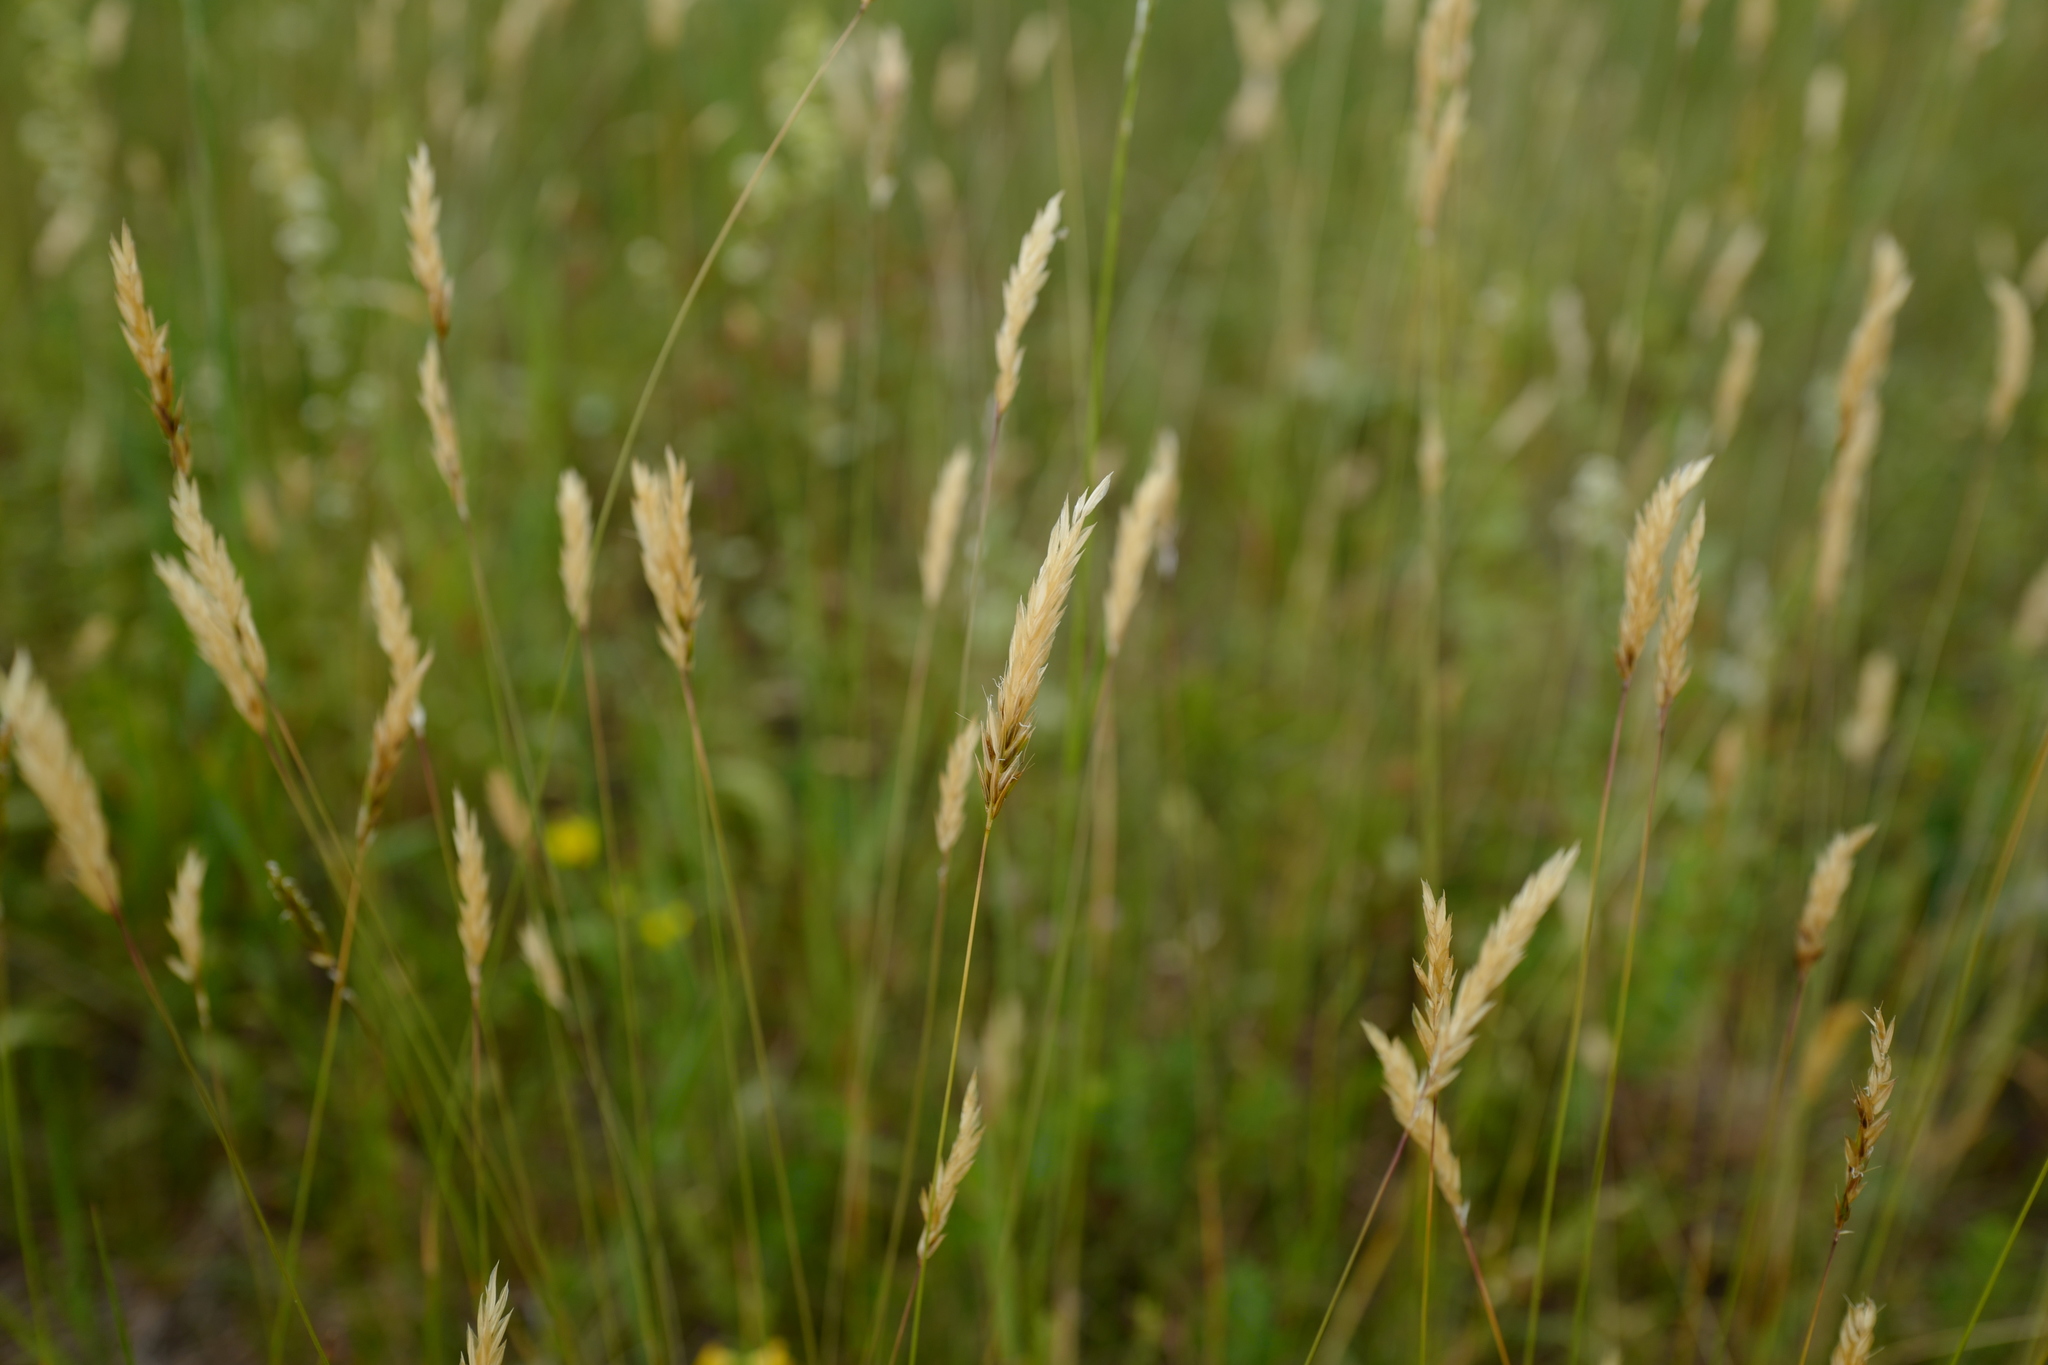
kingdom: Plantae
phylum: Tracheophyta
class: Liliopsida
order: Poales
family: Poaceae
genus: Anthoxanthum
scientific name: Anthoxanthum odoratum
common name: Sweet vernalgrass
